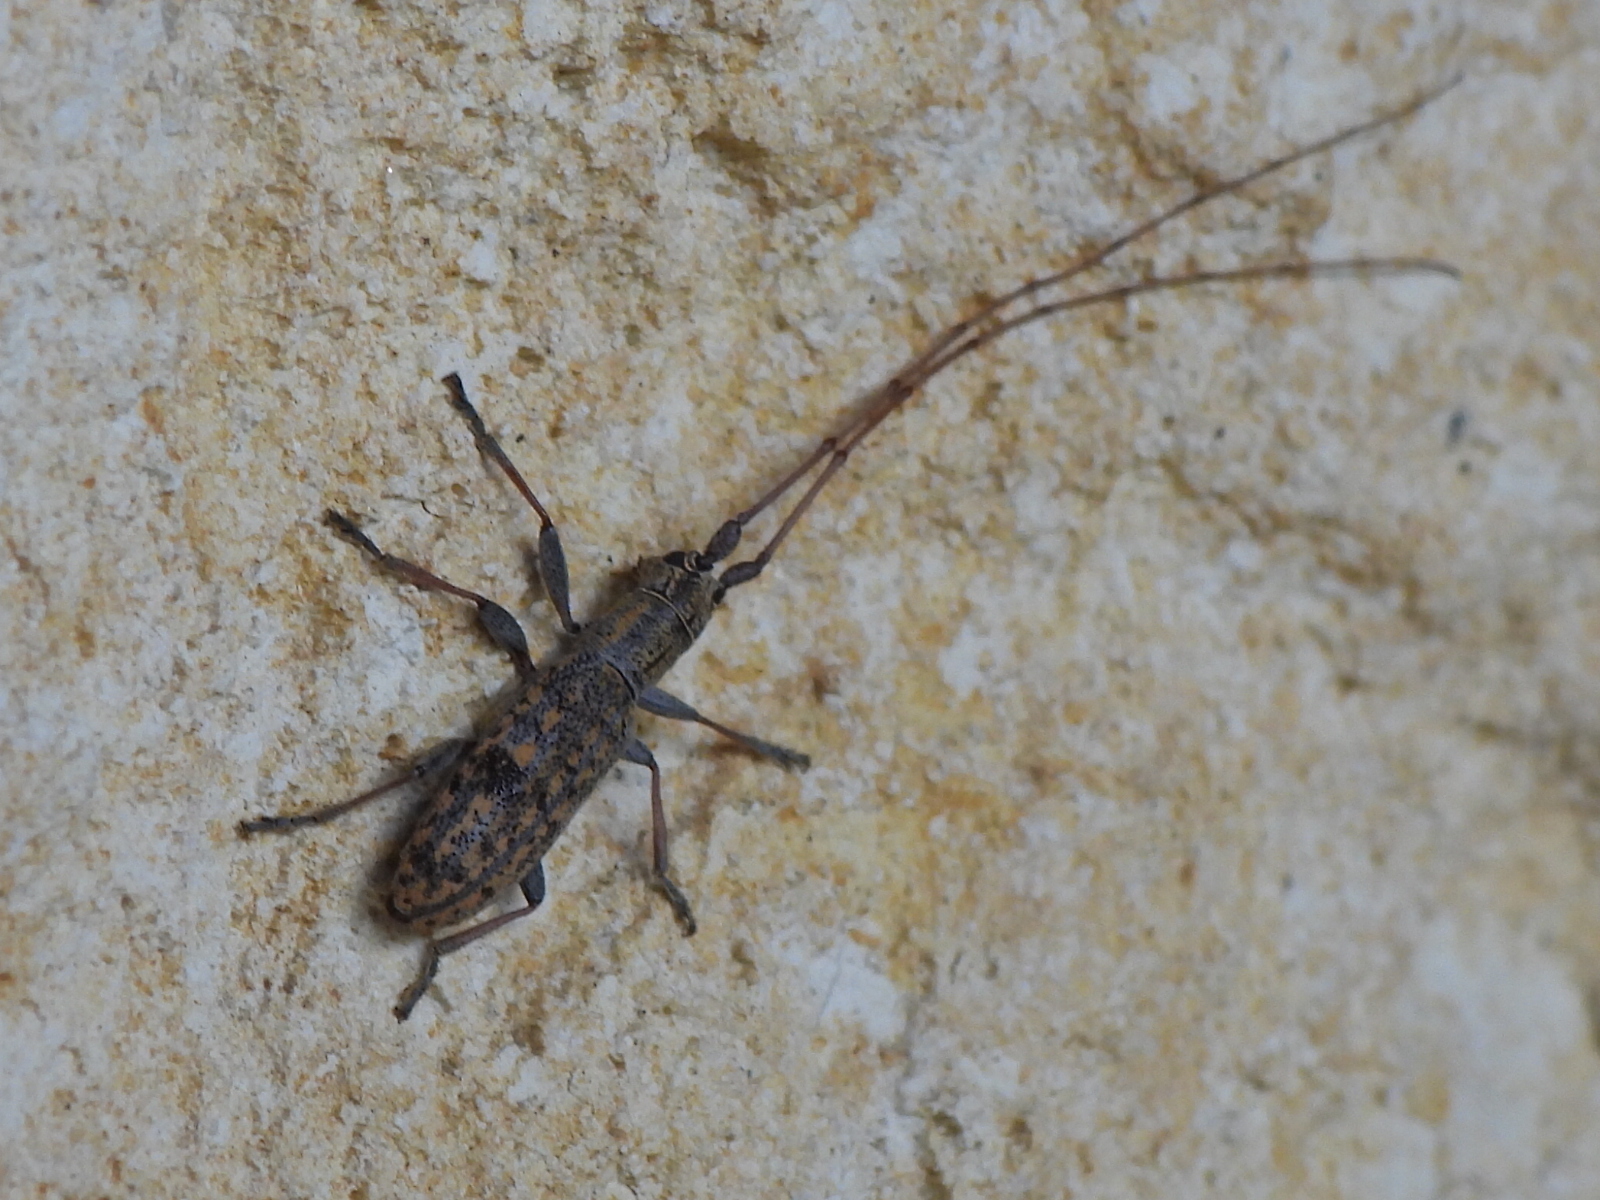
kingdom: Animalia
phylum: Arthropoda
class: Insecta
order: Coleoptera
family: Cerambycidae
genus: Dorcaschema
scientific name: Dorcaschema alternatum
